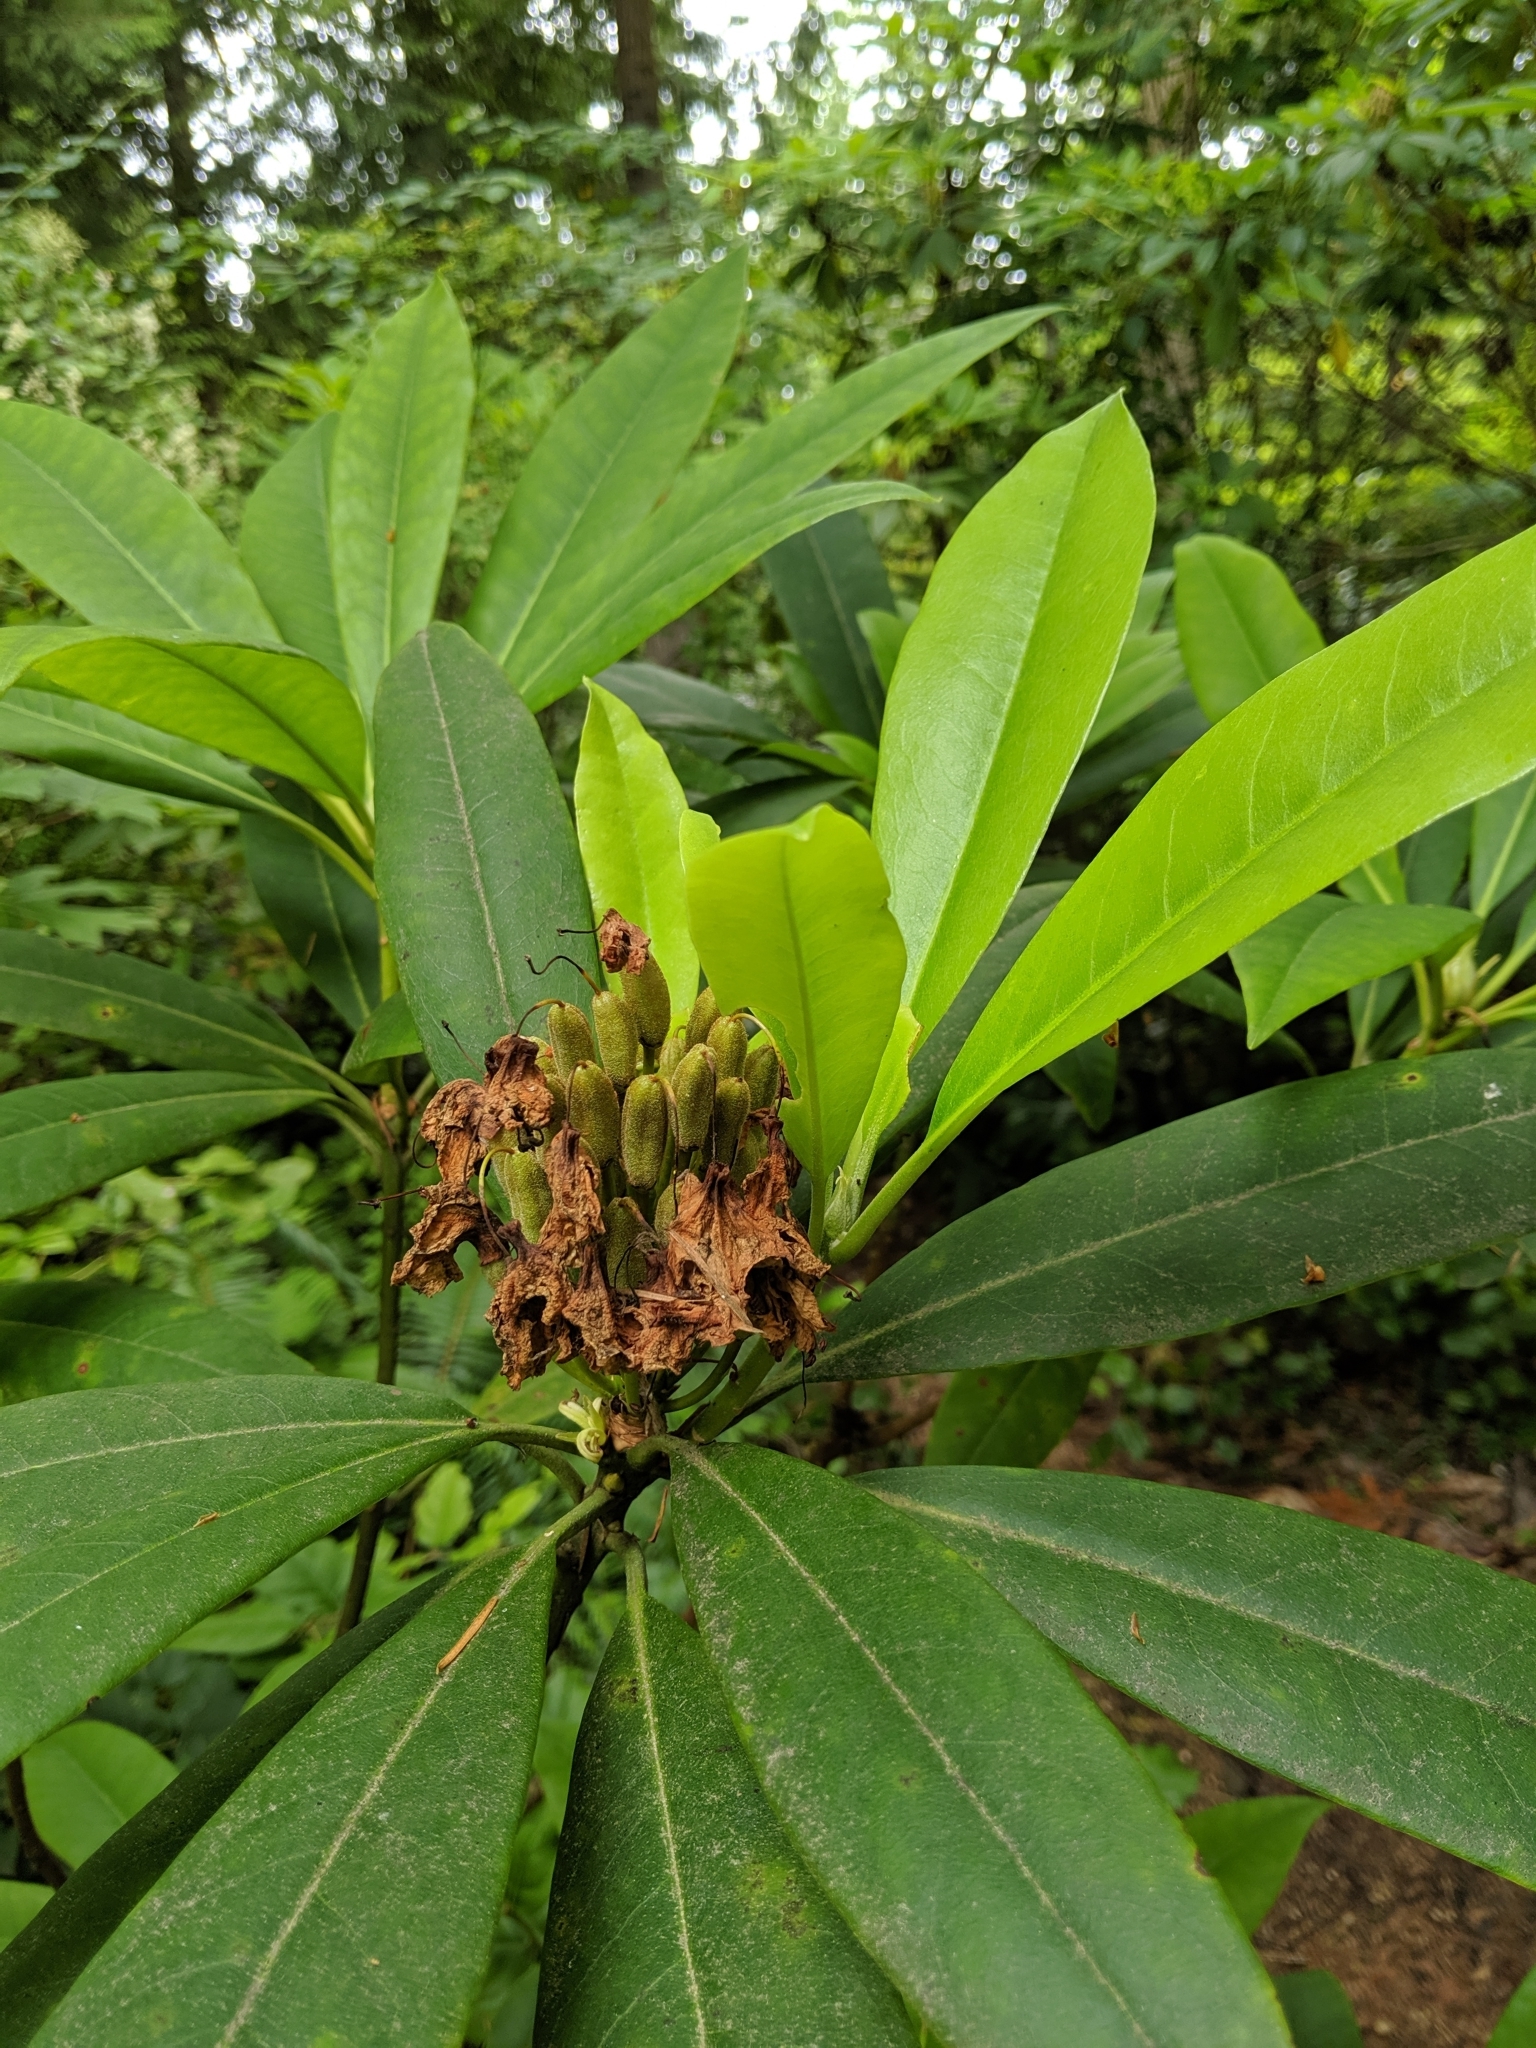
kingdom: Plantae
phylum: Tracheophyta
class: Magnoliopsida
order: Ericales
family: Ericaceae
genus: Rhododendron
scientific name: Rhododendron macrophyllum
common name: California rose bay
